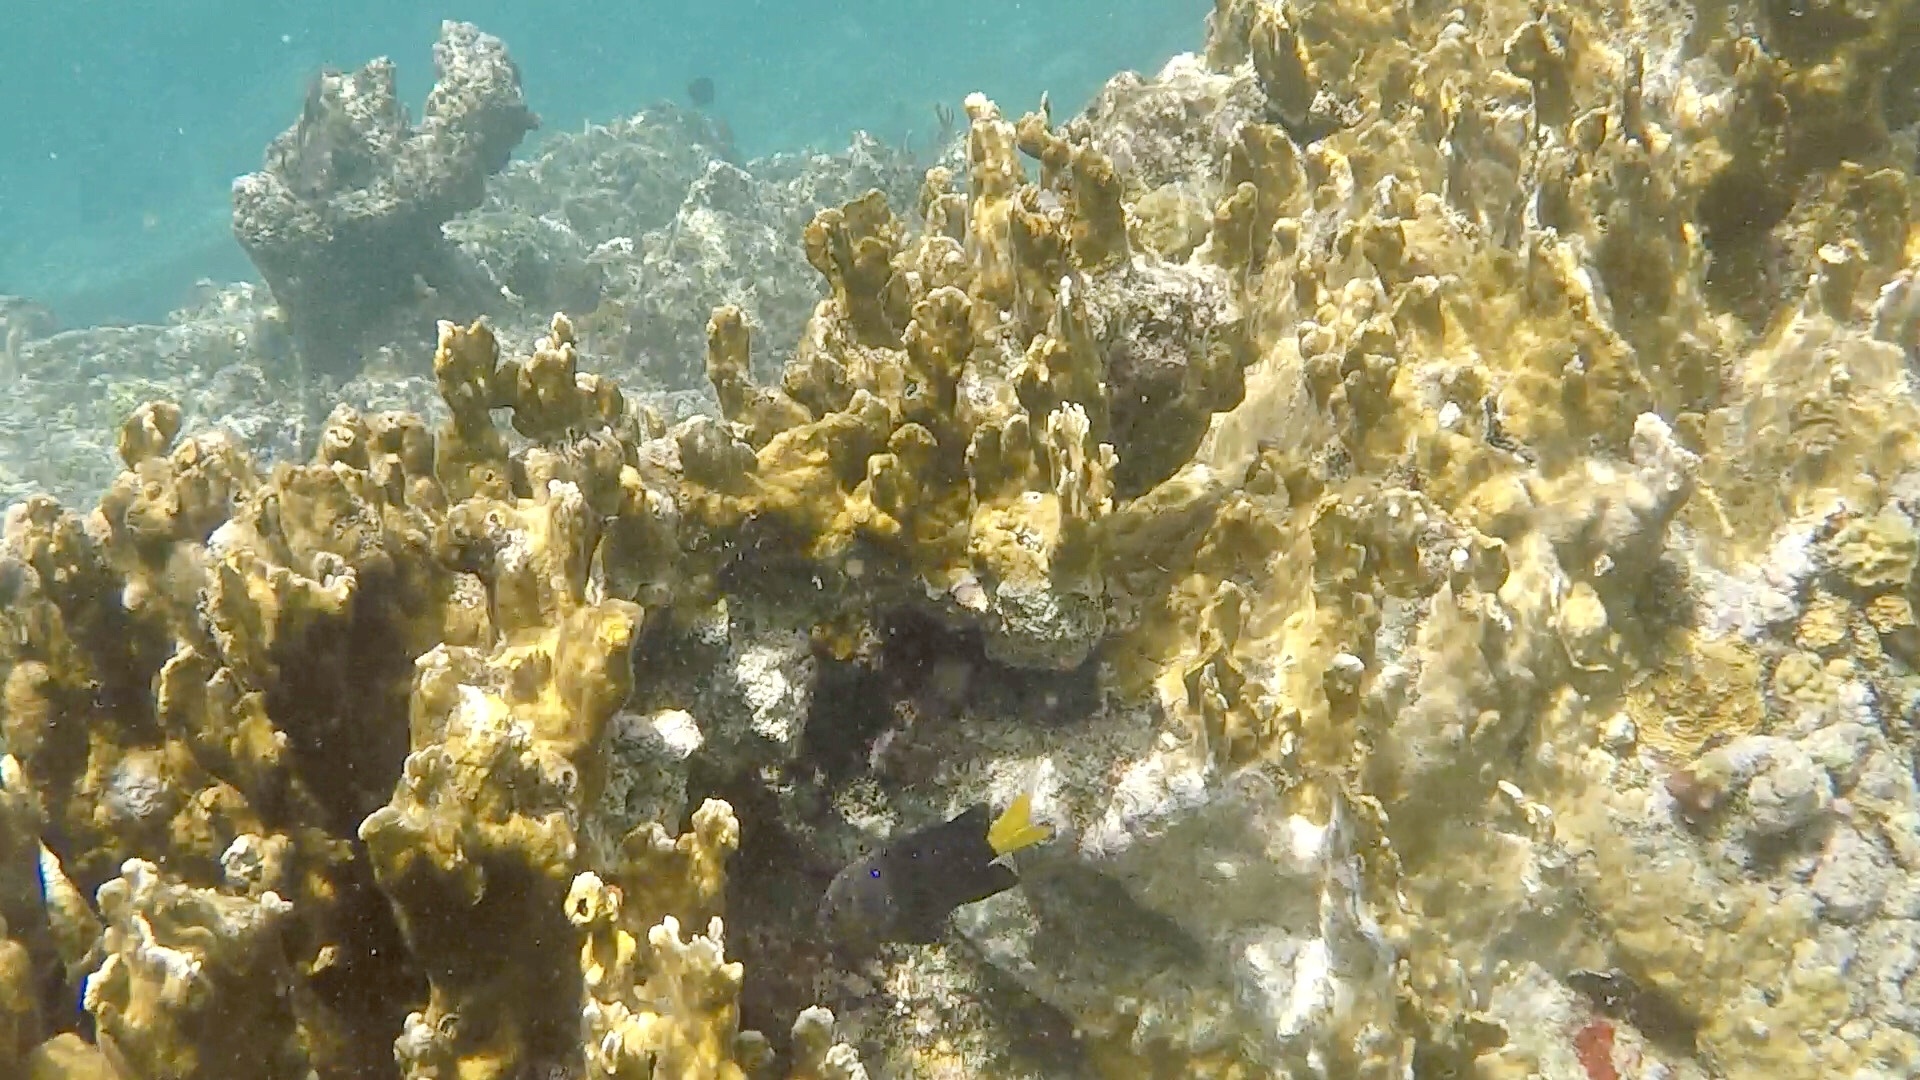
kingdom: Animalia
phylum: Chordata
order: Perciformes
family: Pomacentridae
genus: Microspathodon
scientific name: Microspathodon chrysurus
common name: Yellowtail damselfish
